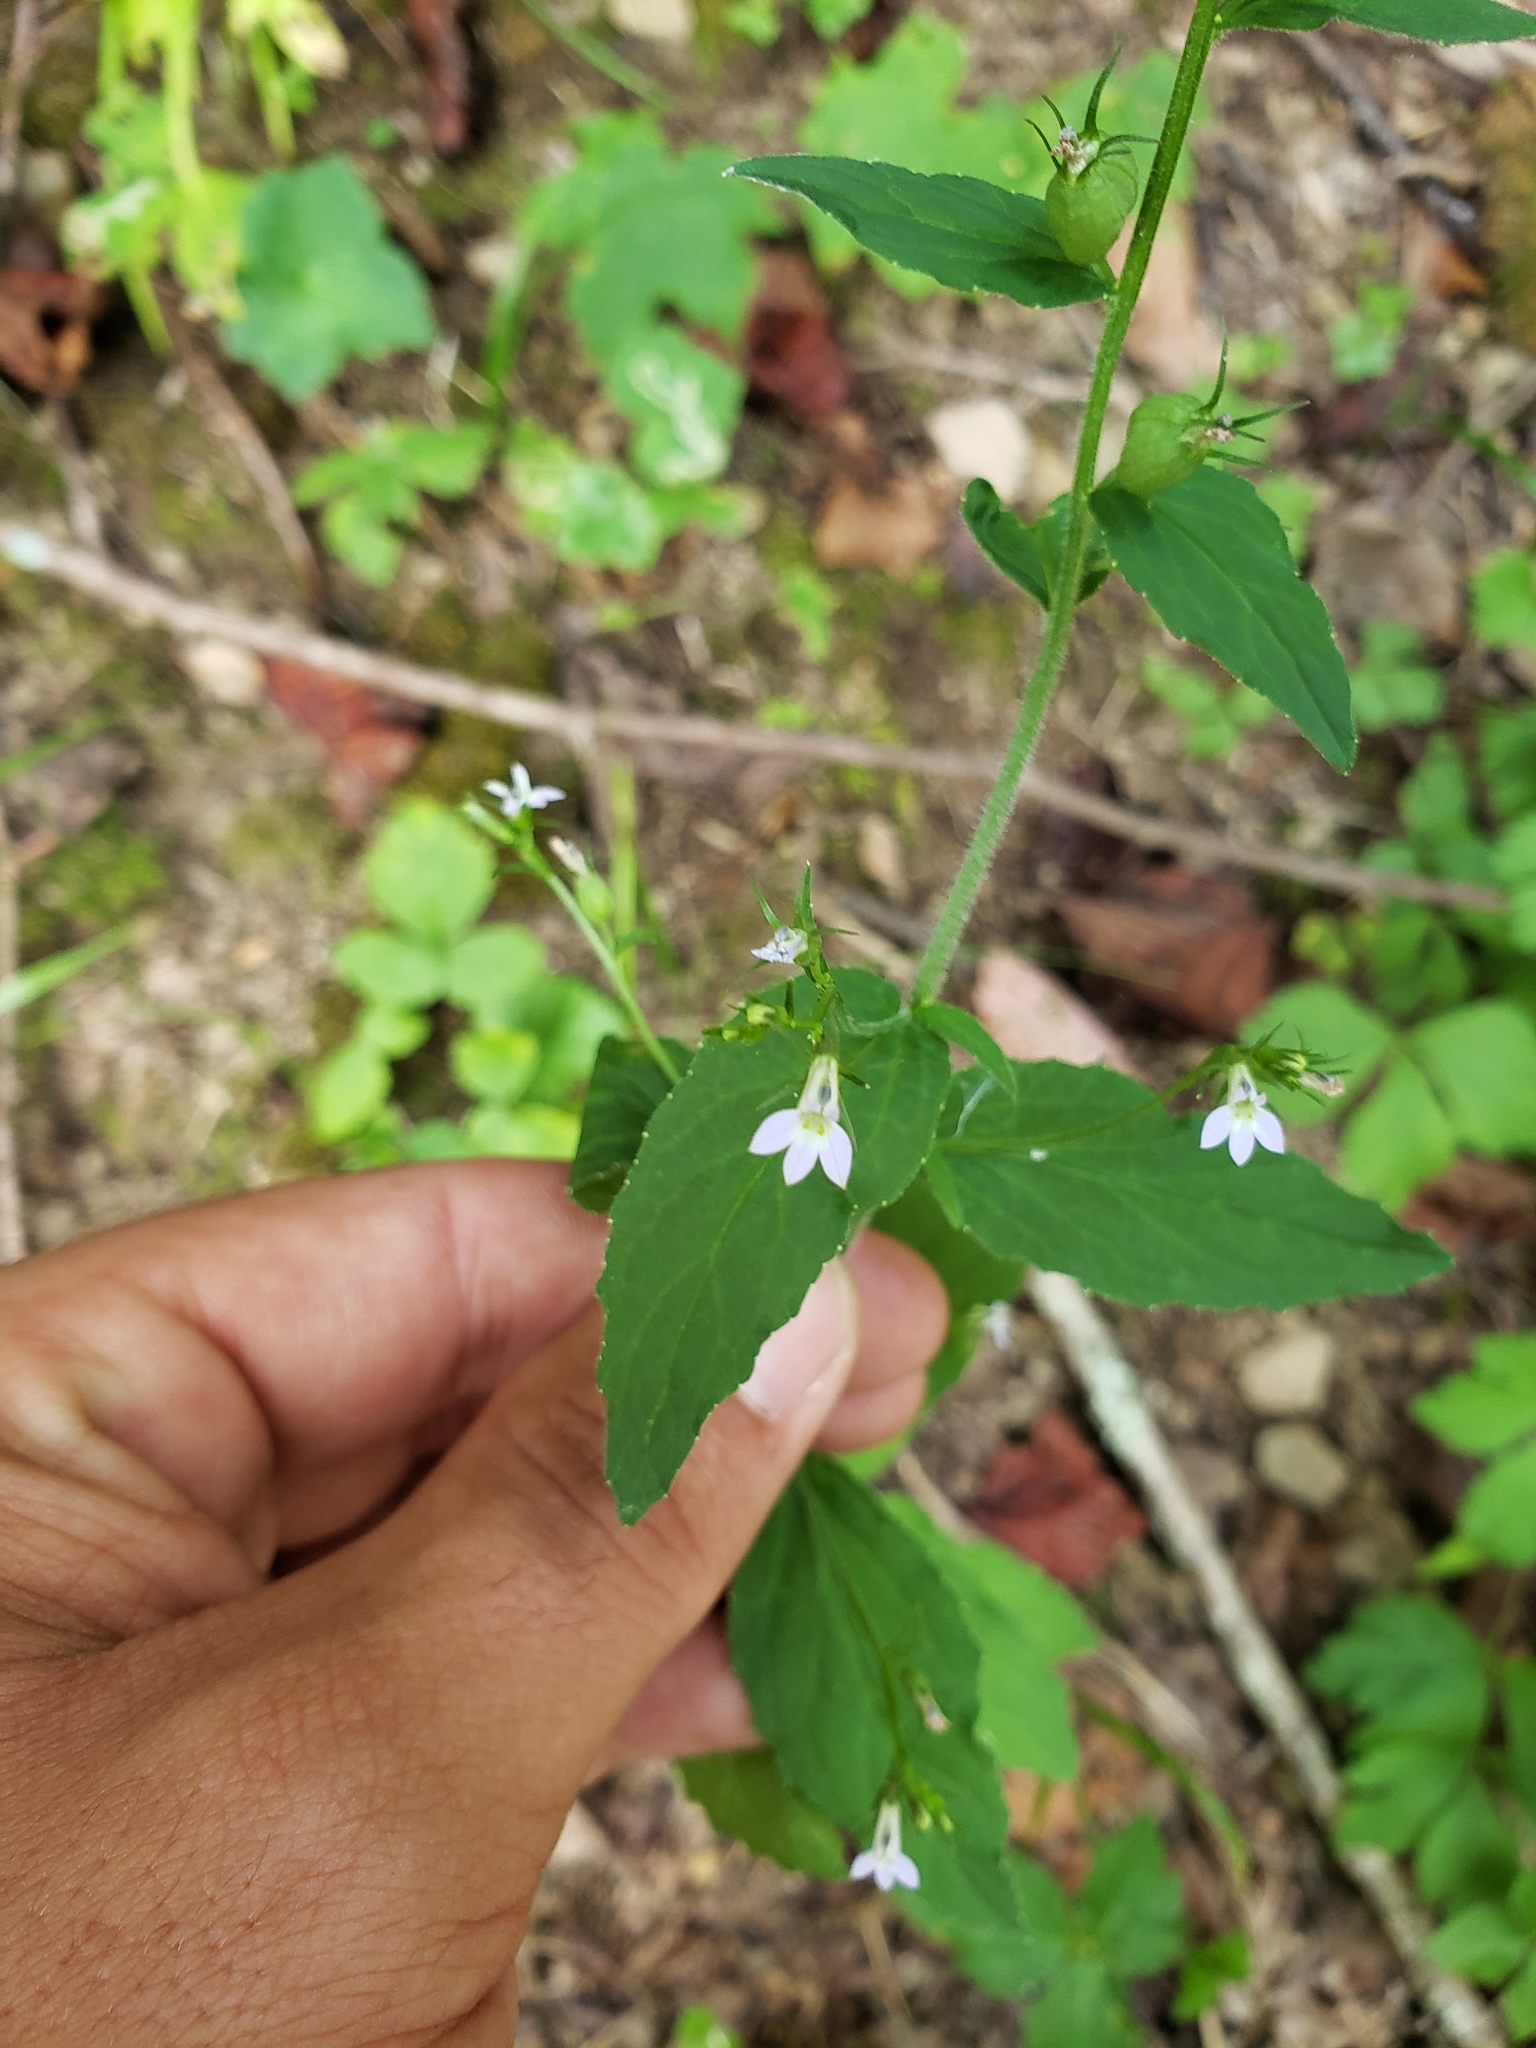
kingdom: Plantae
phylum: Tracheophyta
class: Magnoliopsida
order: Asterales
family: Campanulaceae
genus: Lobelia
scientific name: Lobelia inflata
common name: Indian tobacco
